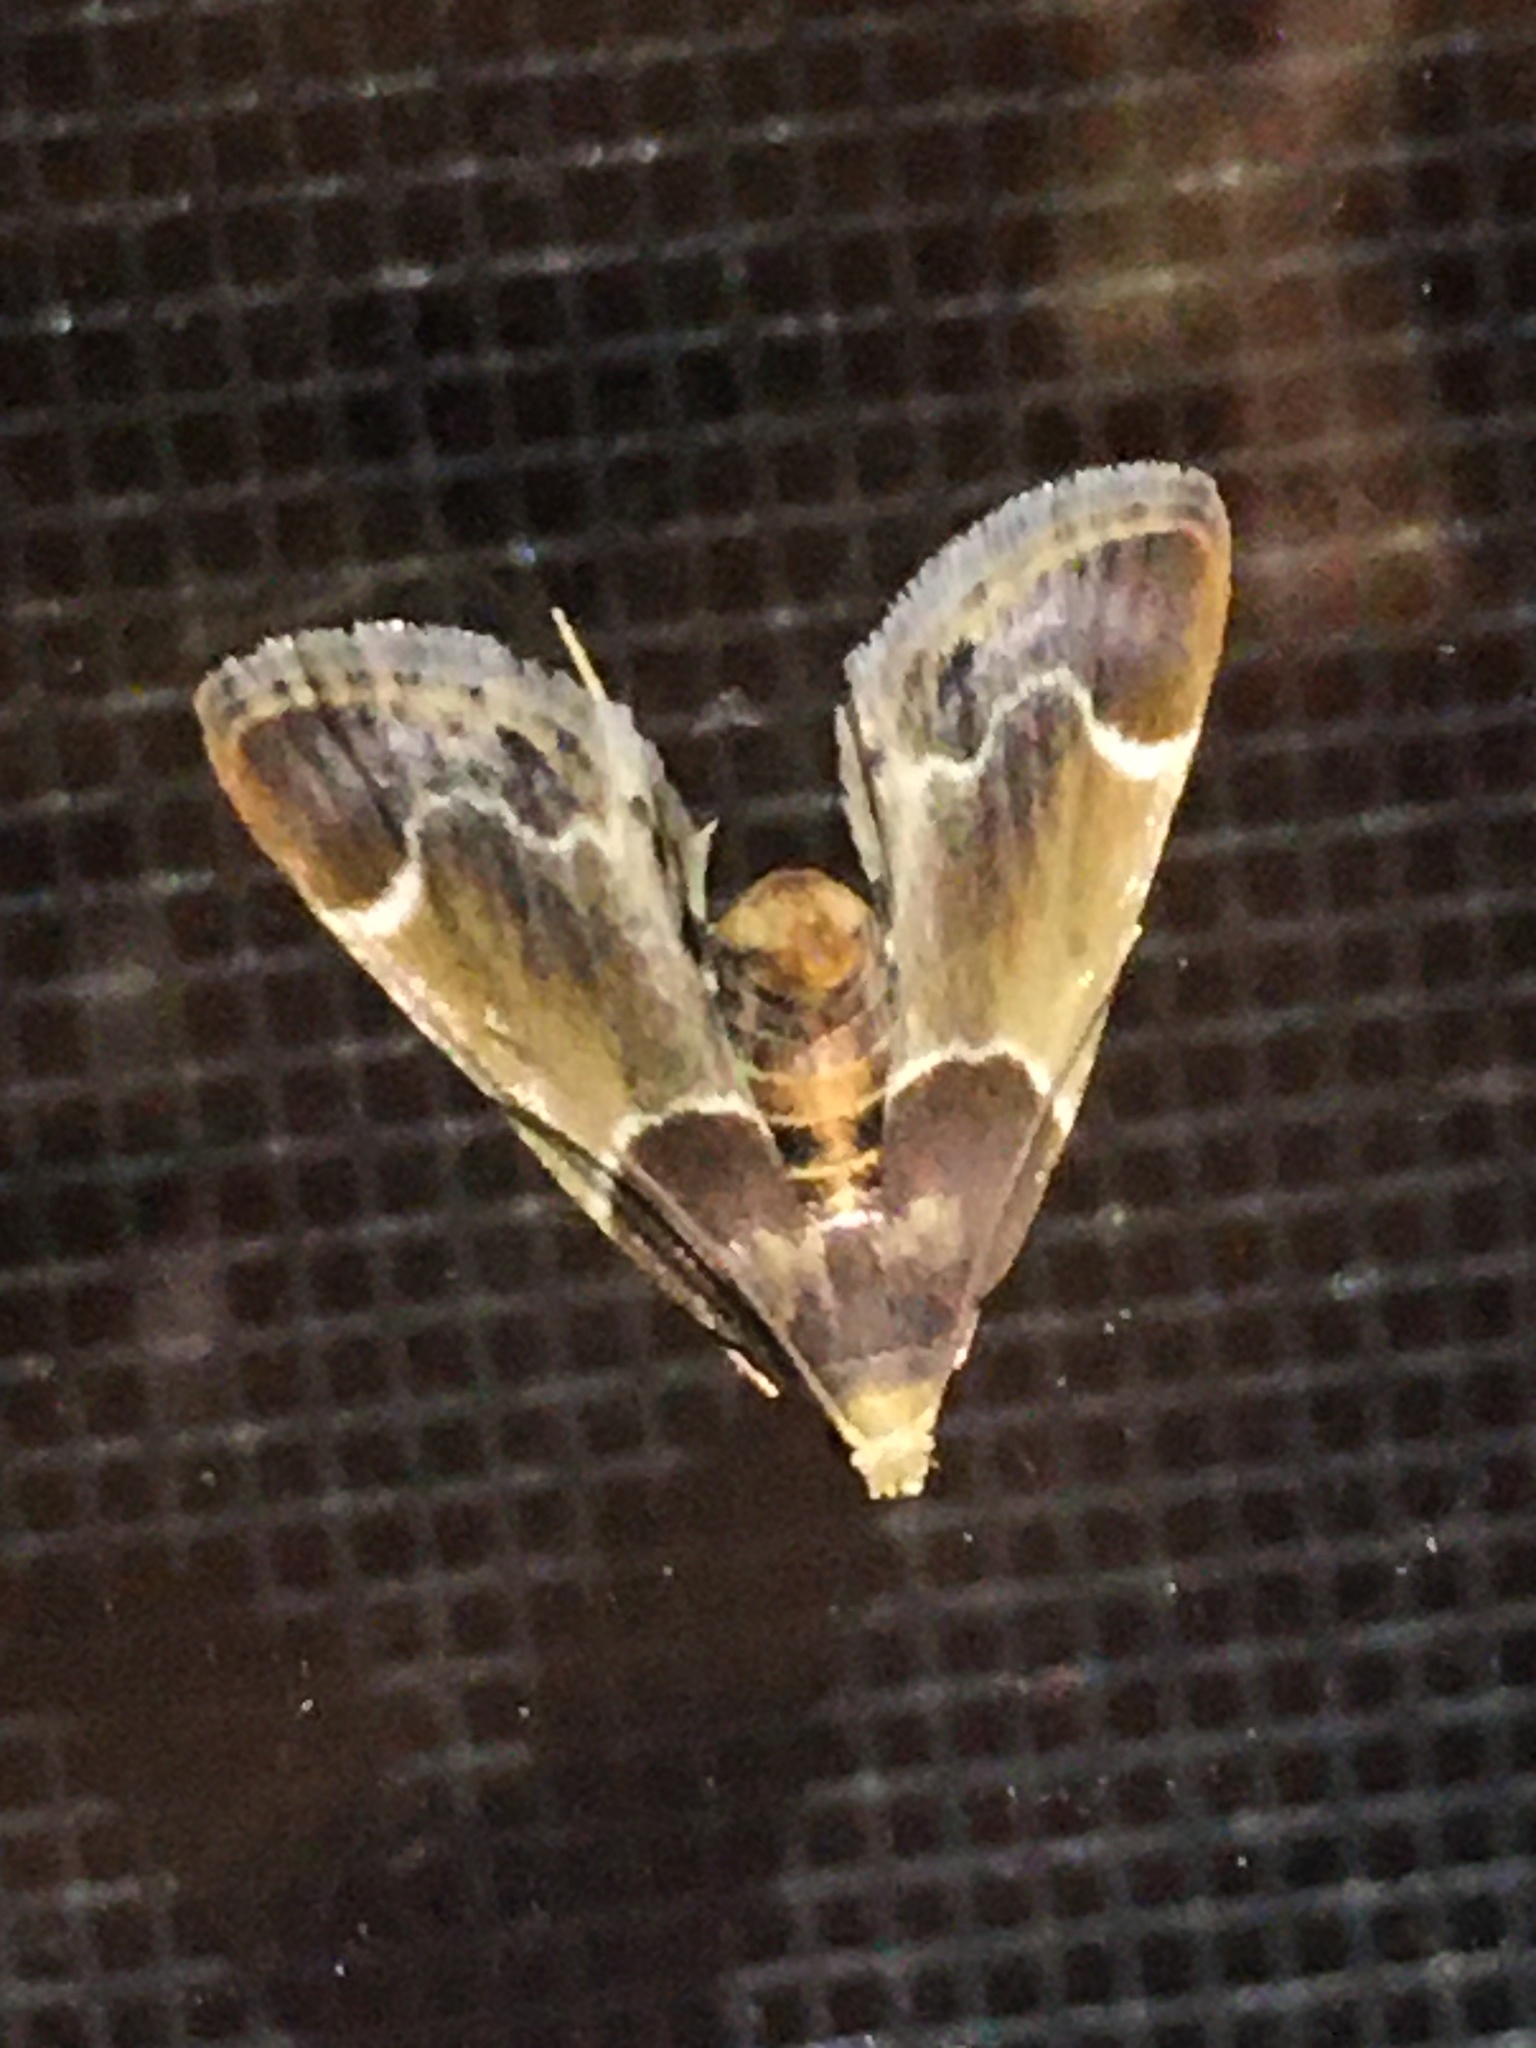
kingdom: Animalia
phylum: Arthropoda
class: Insecta
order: Lepidoptera
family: Pyralidae
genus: Pyralis
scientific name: Pyralis farinalis
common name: Meal moth
